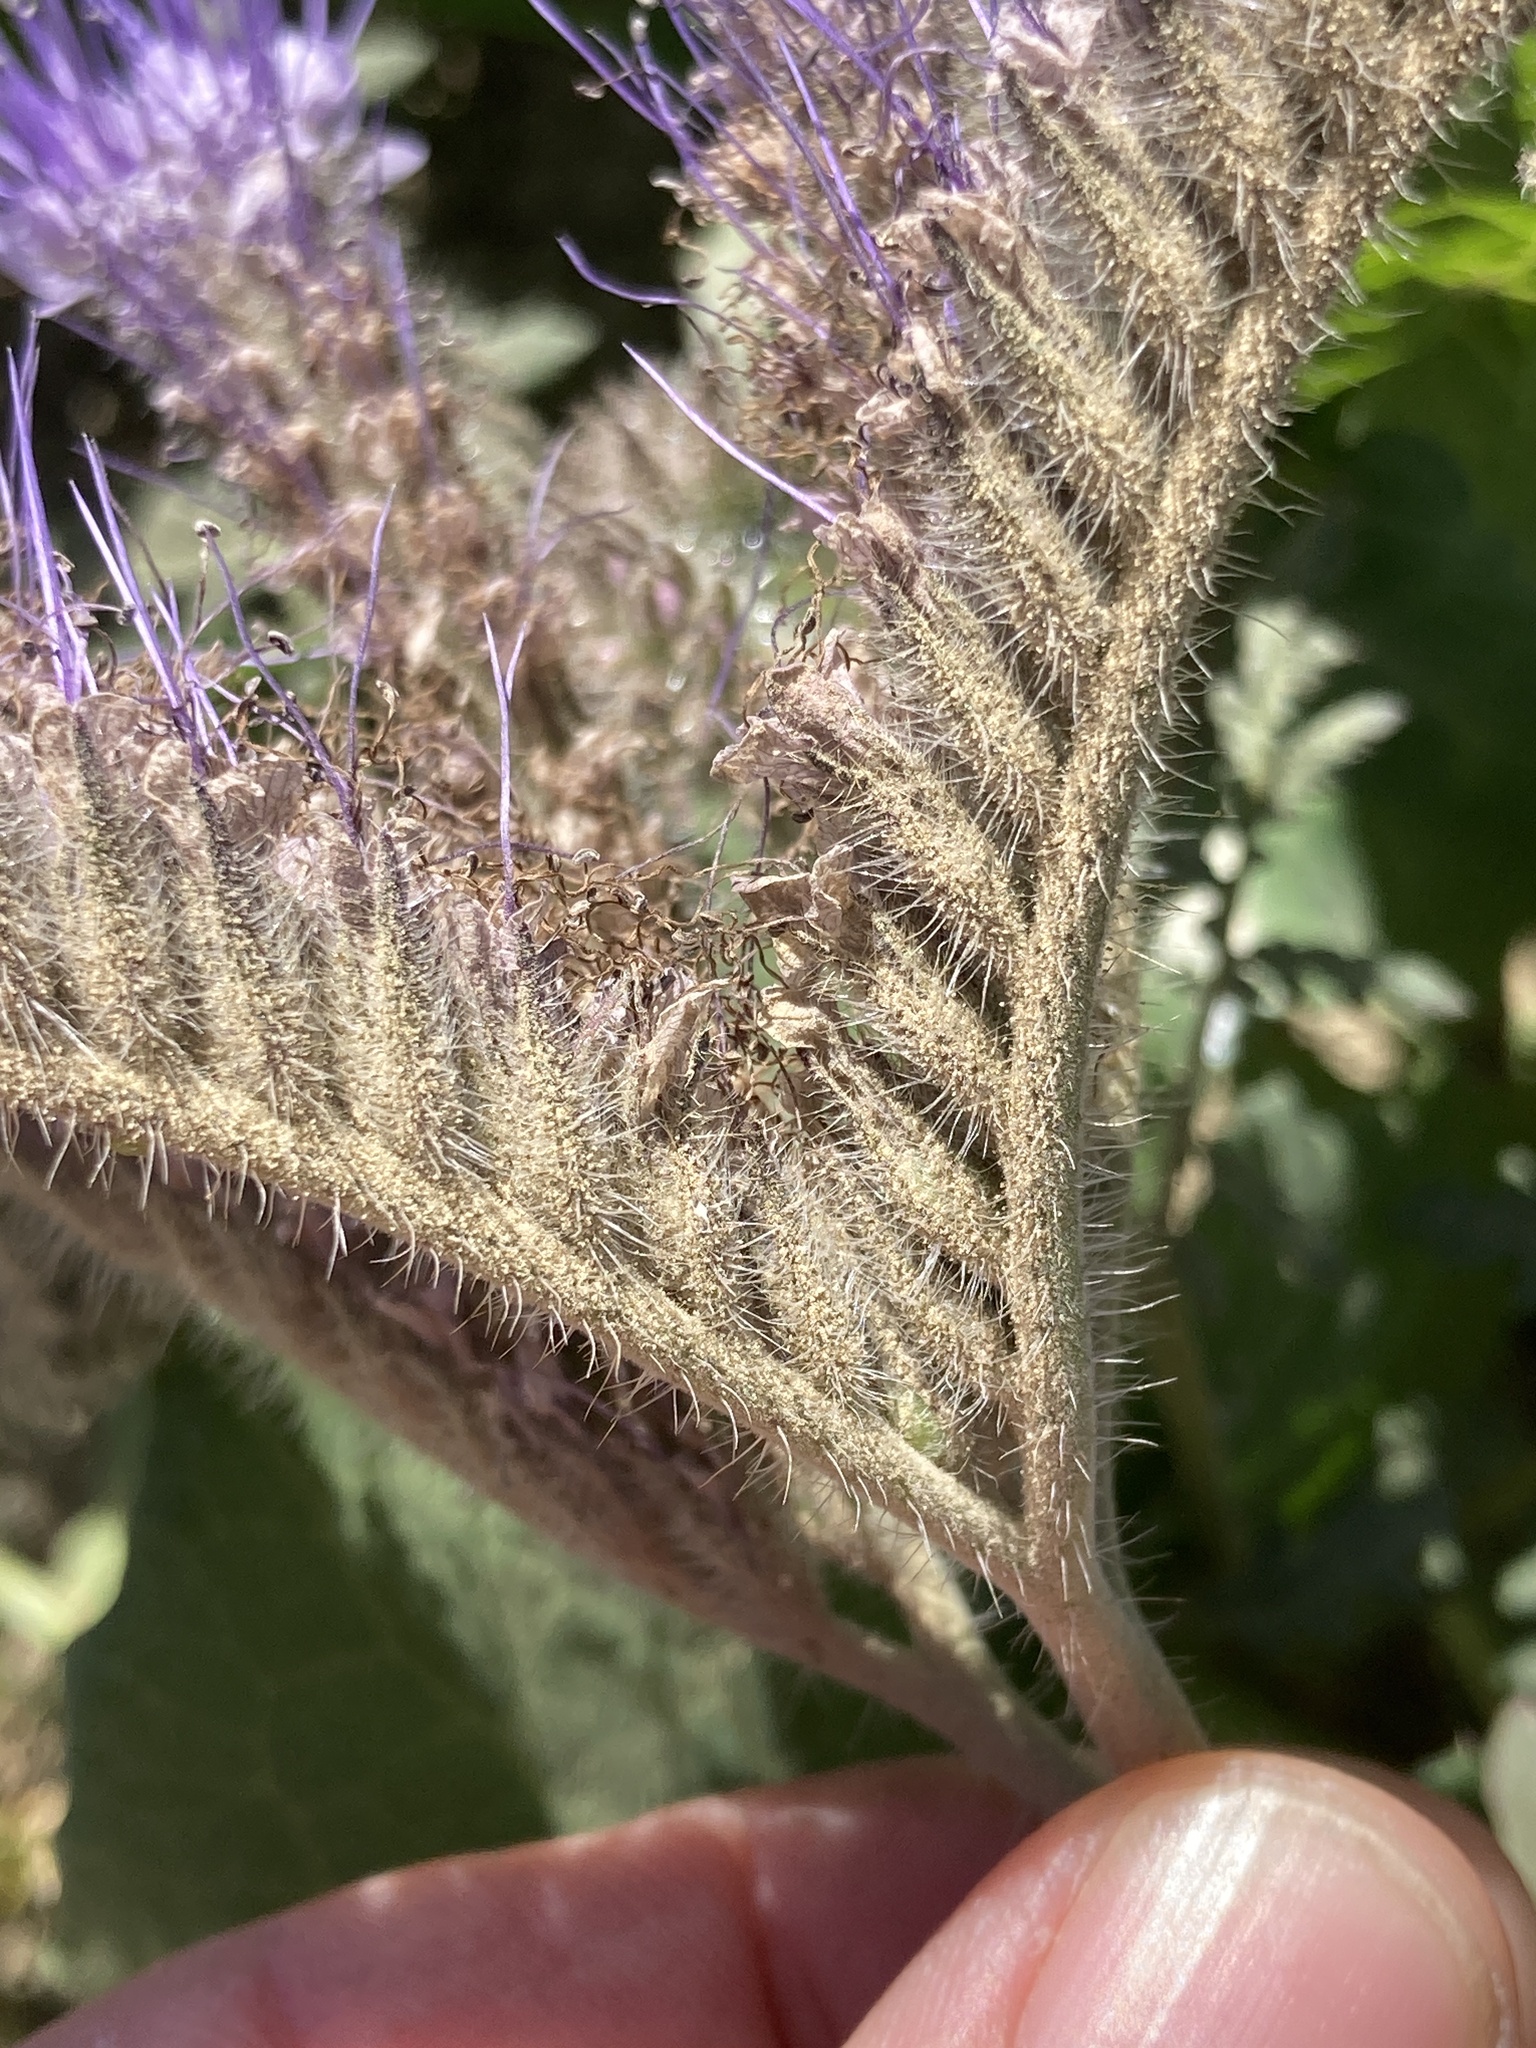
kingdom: Plantae
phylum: Tracheophyta
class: Magnoliopsida
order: Boraginales
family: Hydrophyllaceae
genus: Phacelia
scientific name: Phacelia tanacetifolia
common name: Phacelia
